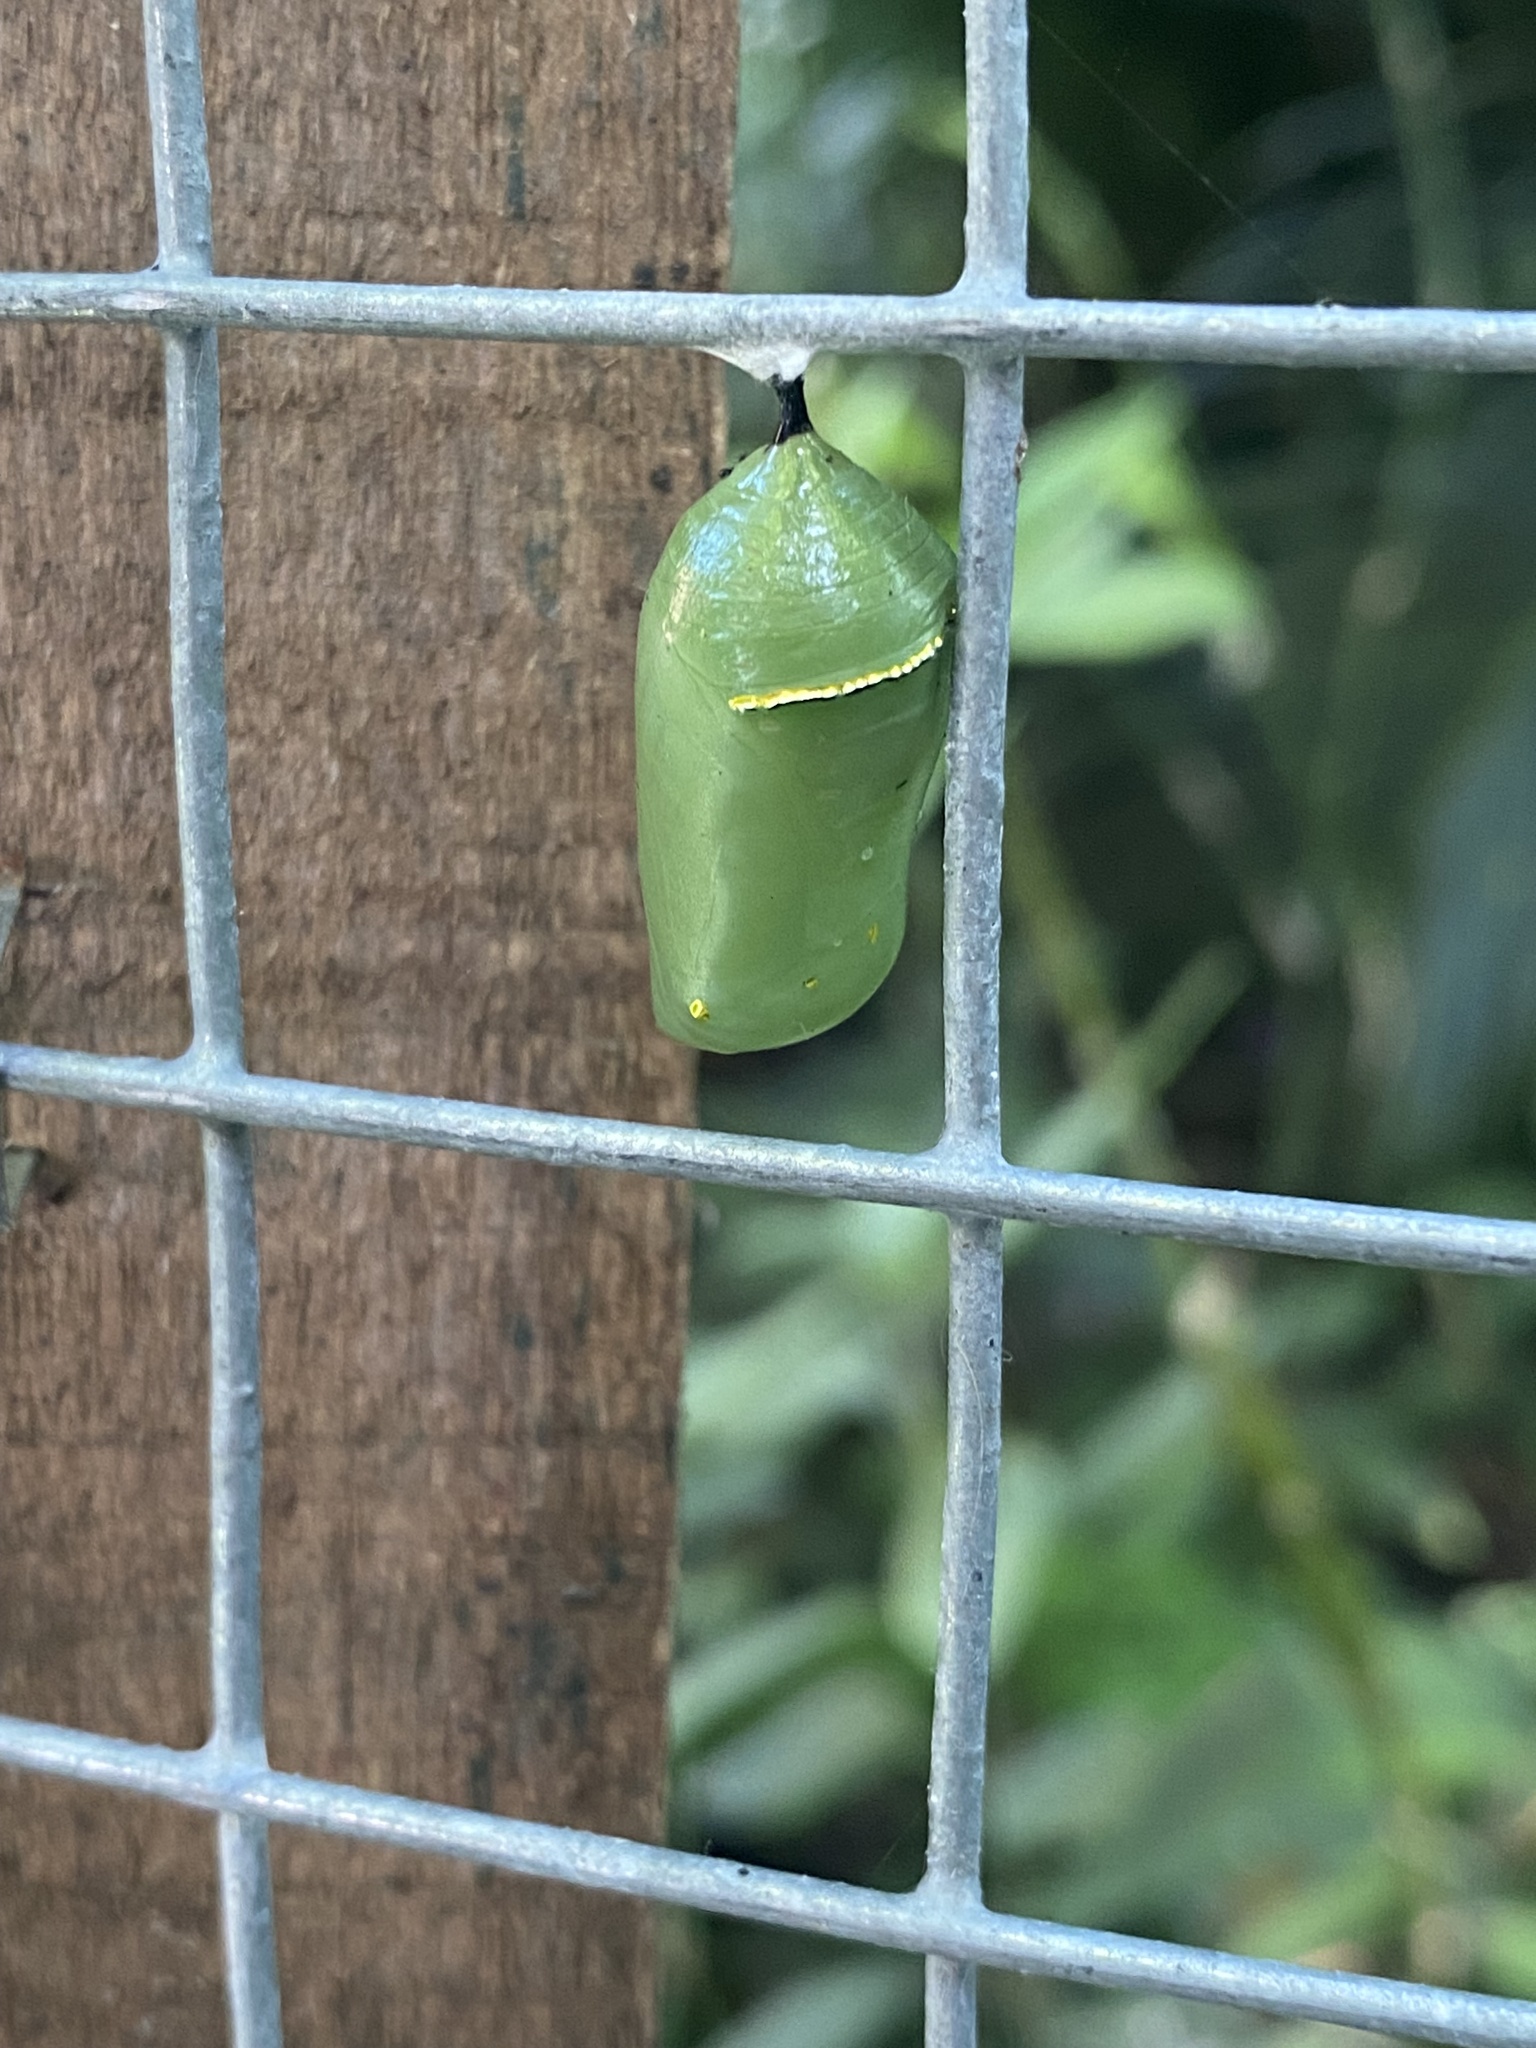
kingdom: Animalia
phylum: Arthropoda
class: Insecta
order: Lepidoptera
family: Nymphalidae
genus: Danaus
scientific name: Danaus erippus
